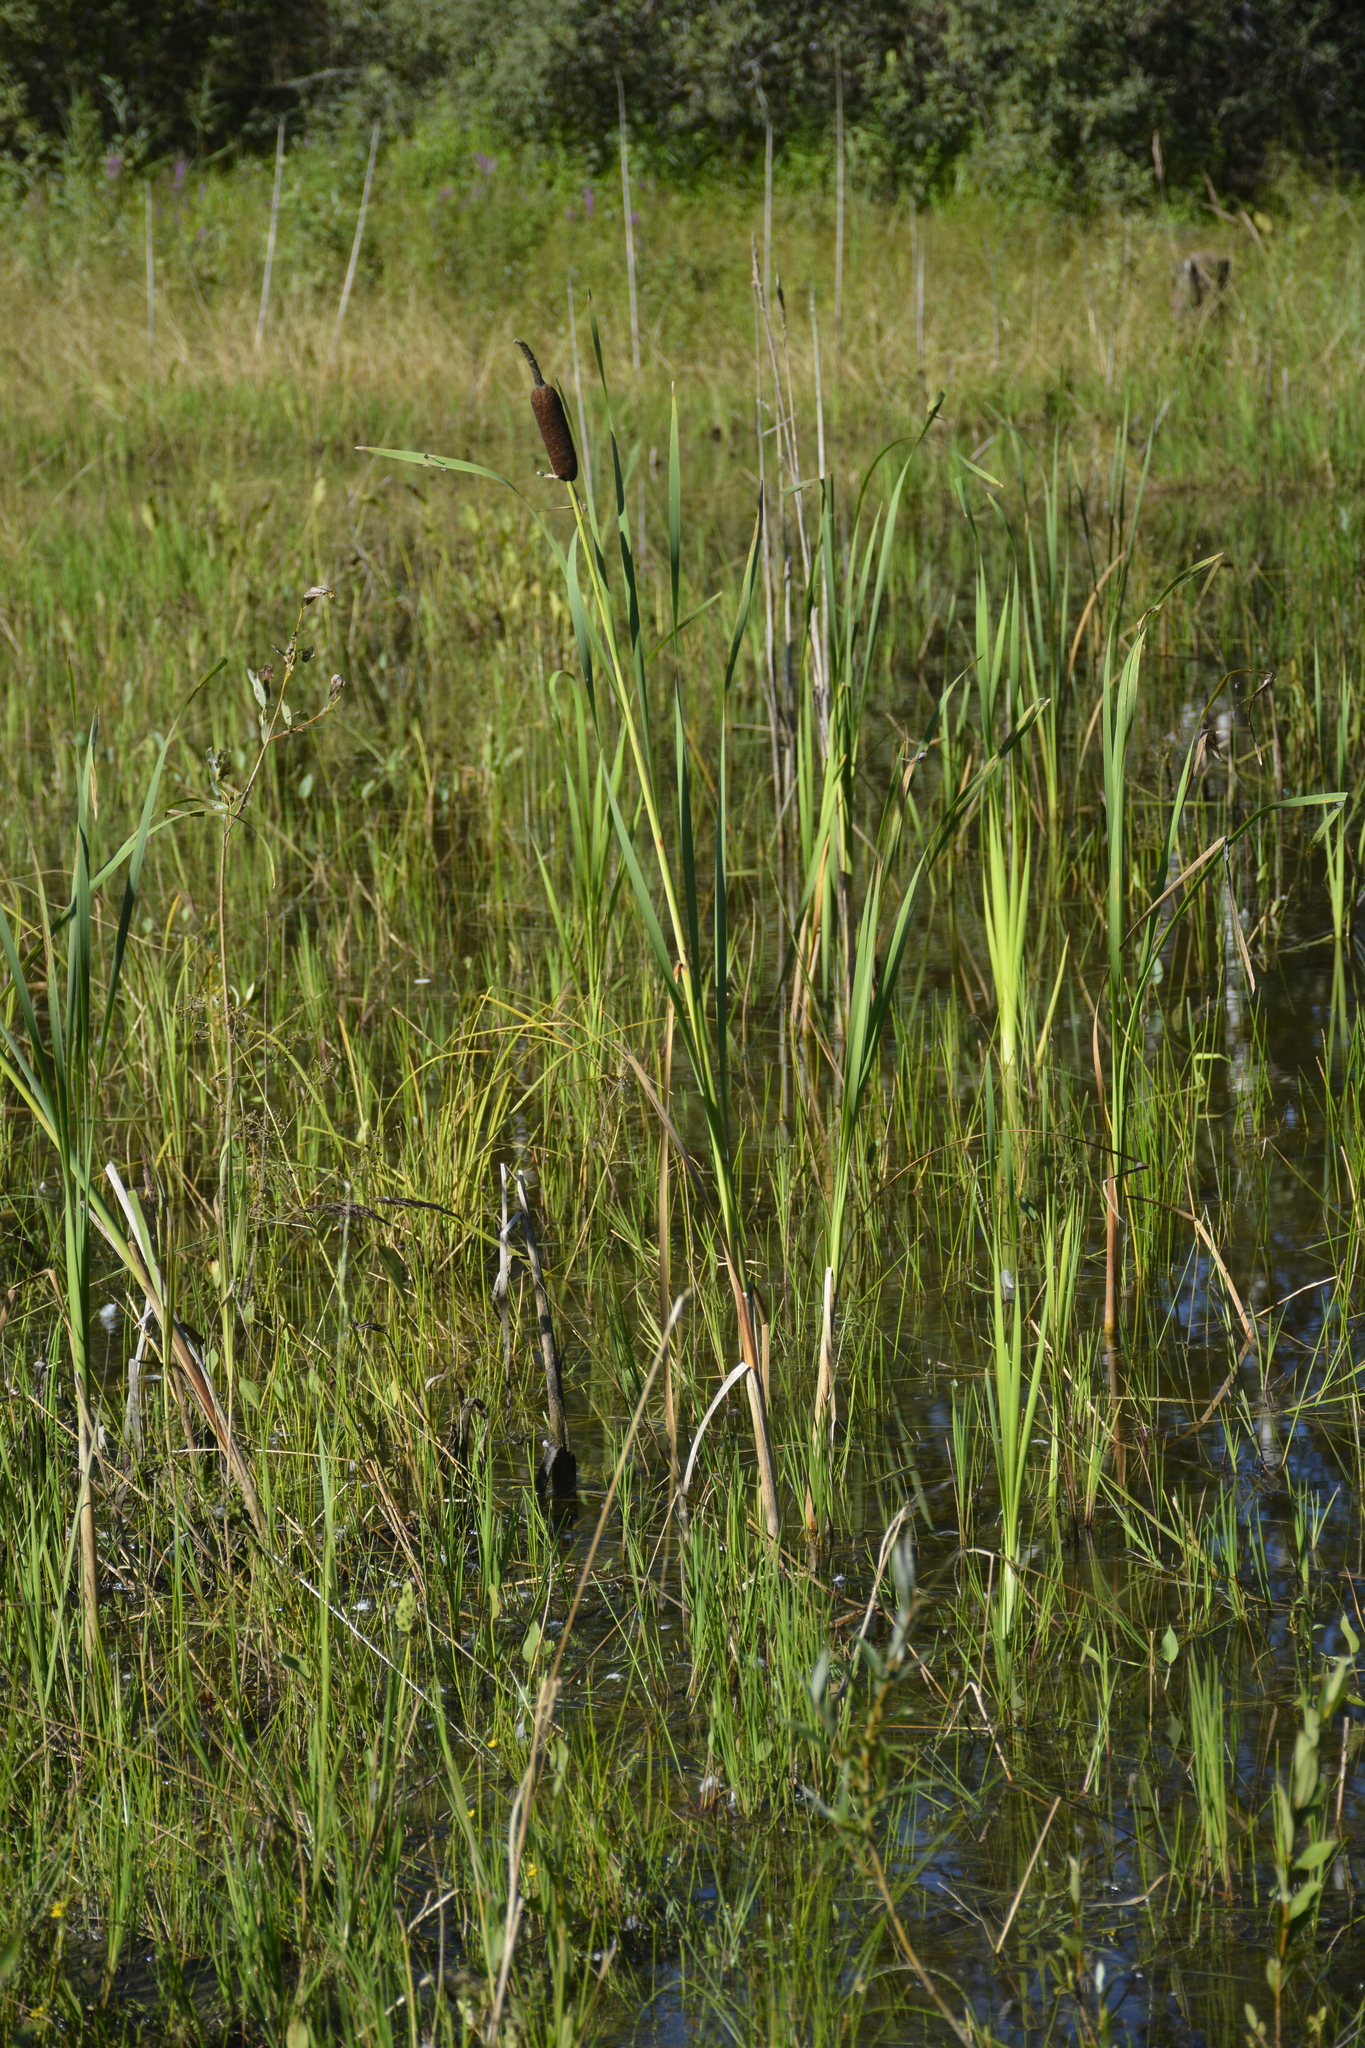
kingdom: Plantae
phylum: Tracheophyta
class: Liliopsida
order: Poales
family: Typhaceae
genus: Typha
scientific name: Typha latifolia
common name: Broadleaf cattail
